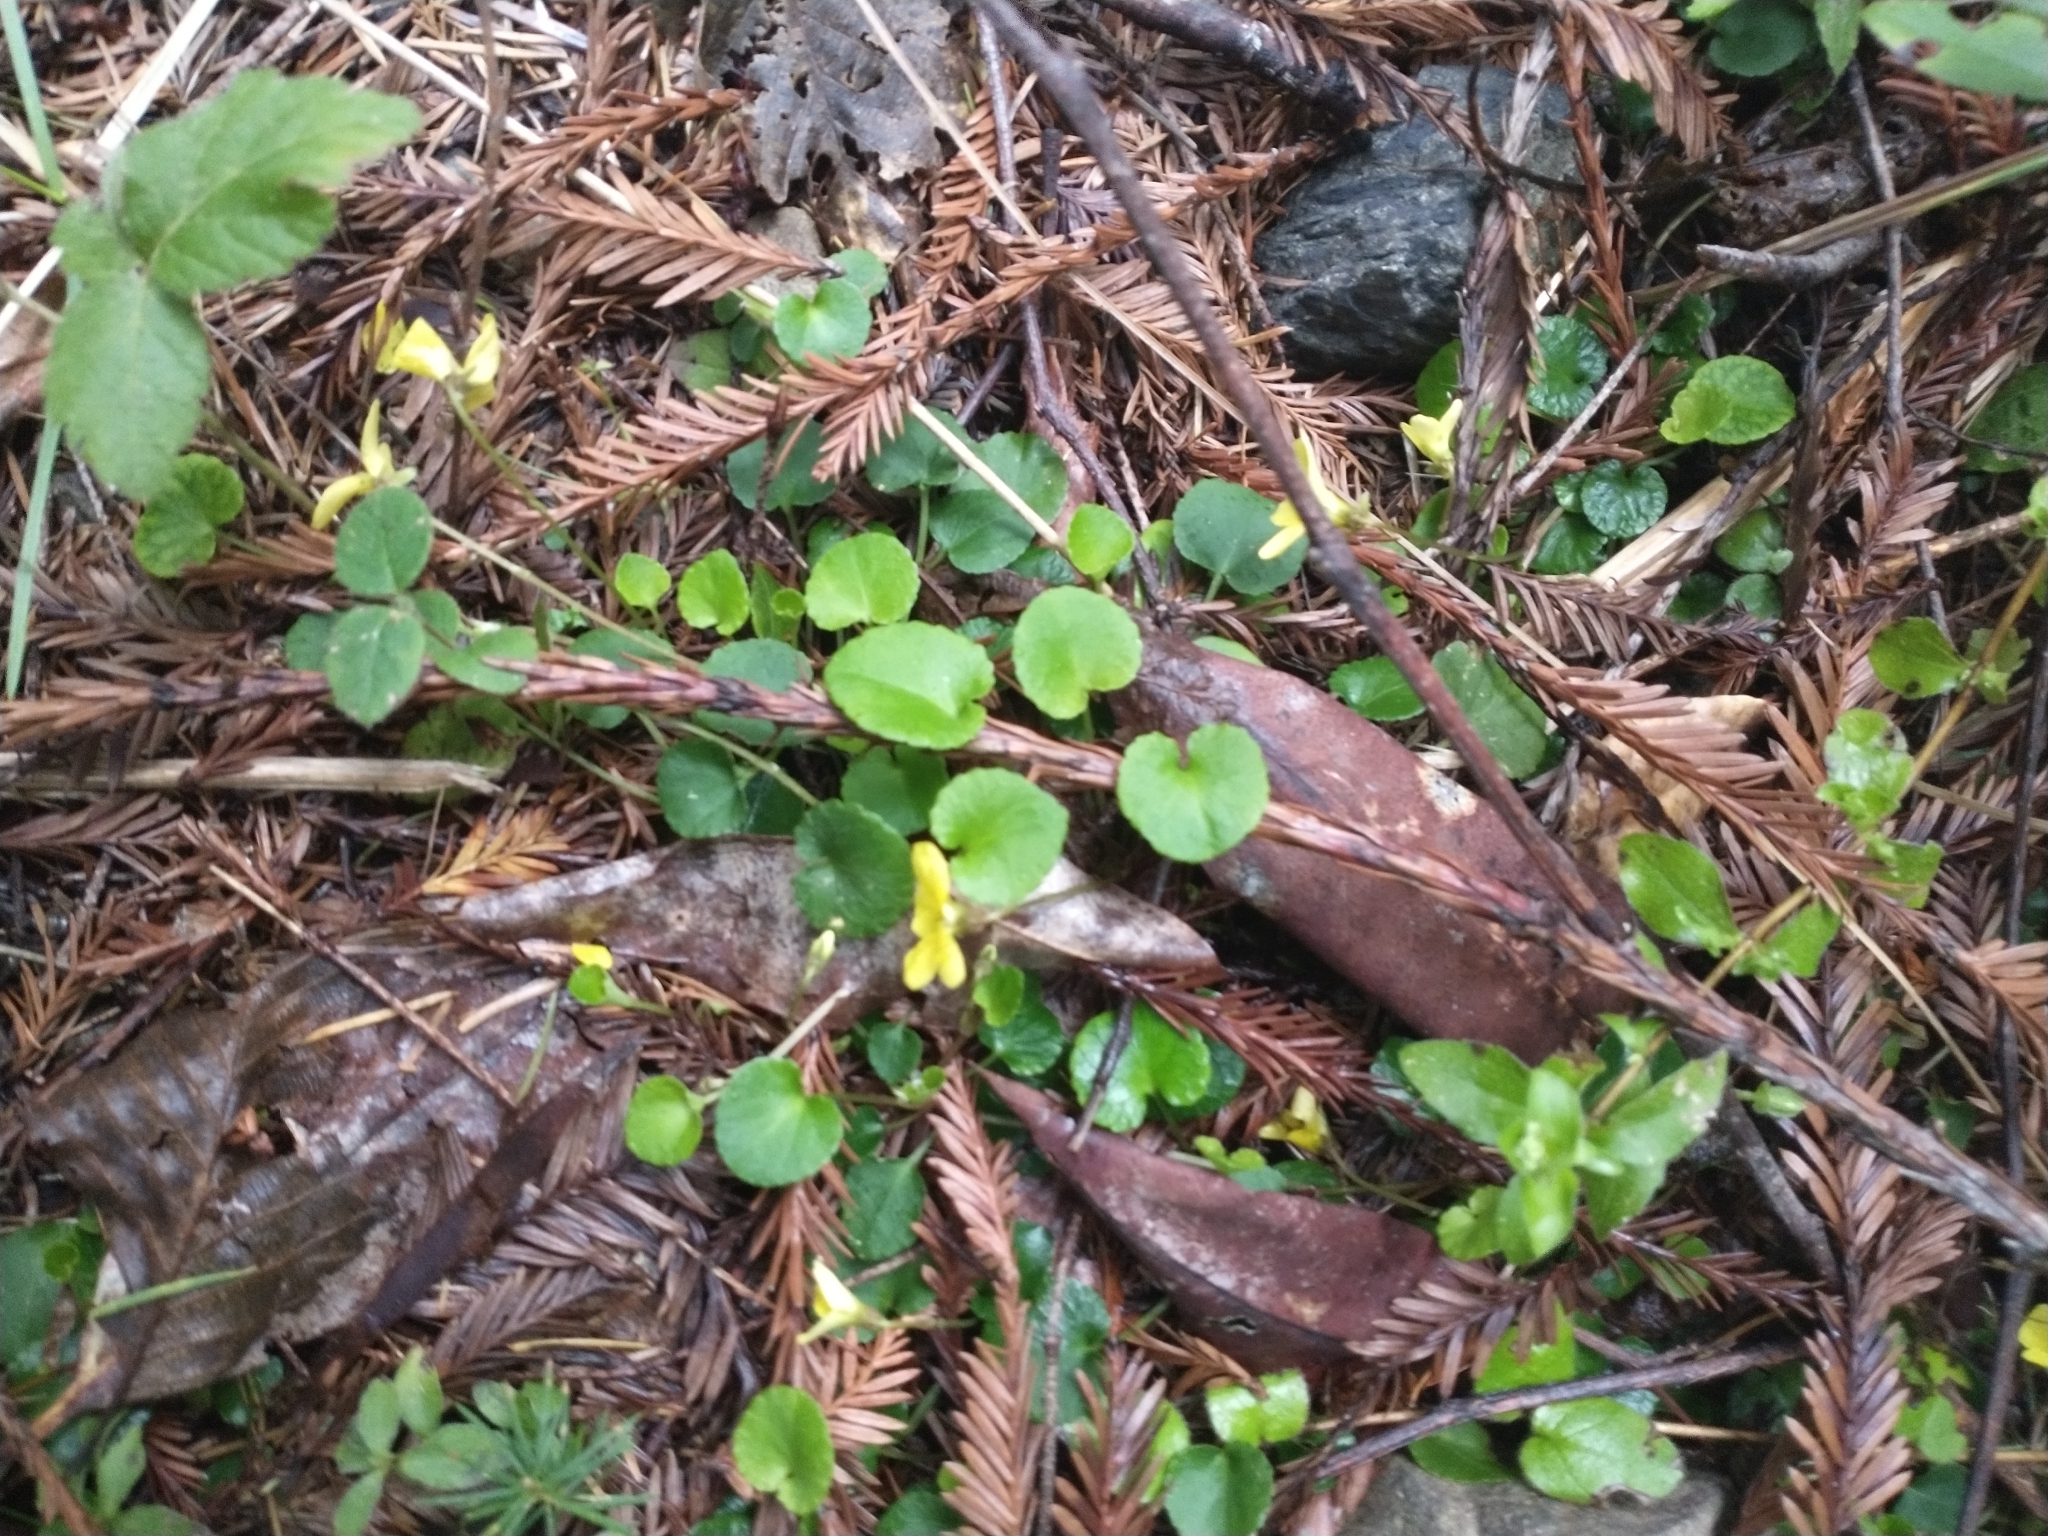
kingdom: Plantae
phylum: Tracheophyta
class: Magnoliopsida
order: Malpighiales
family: Violaceae
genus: Viola
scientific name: Viola sempervirens
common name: Evergreen violet
